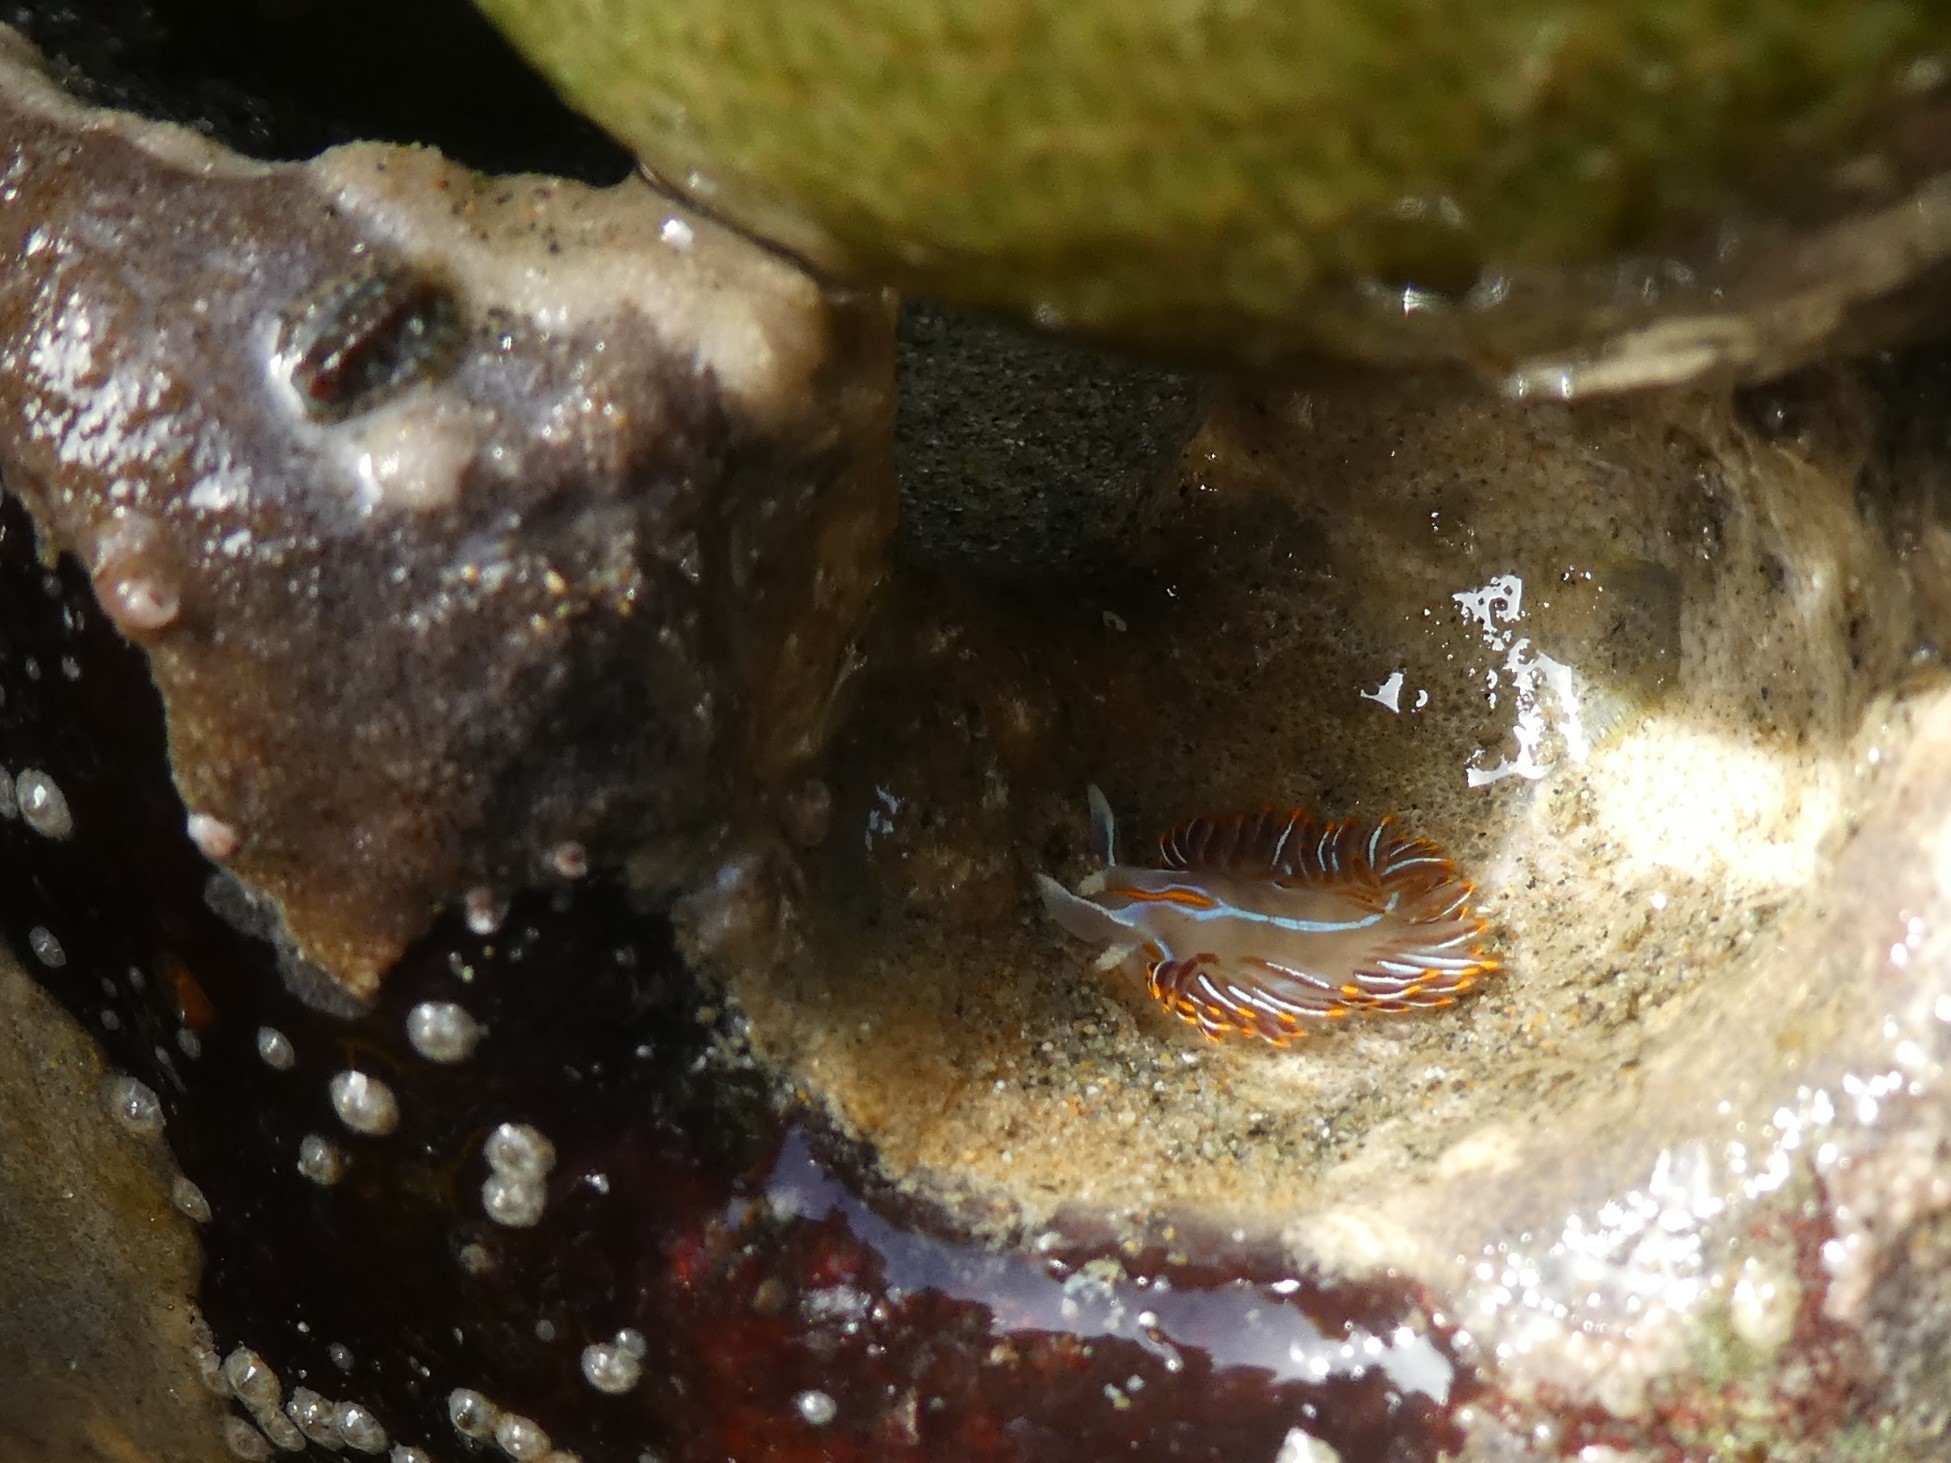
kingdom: Animalia
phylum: Mollusca
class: Gastropoda
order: Nudibranchia
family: Myrrhinidae
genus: Hermissenda
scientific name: Hermissenda crassicornis
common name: Hermissenda
